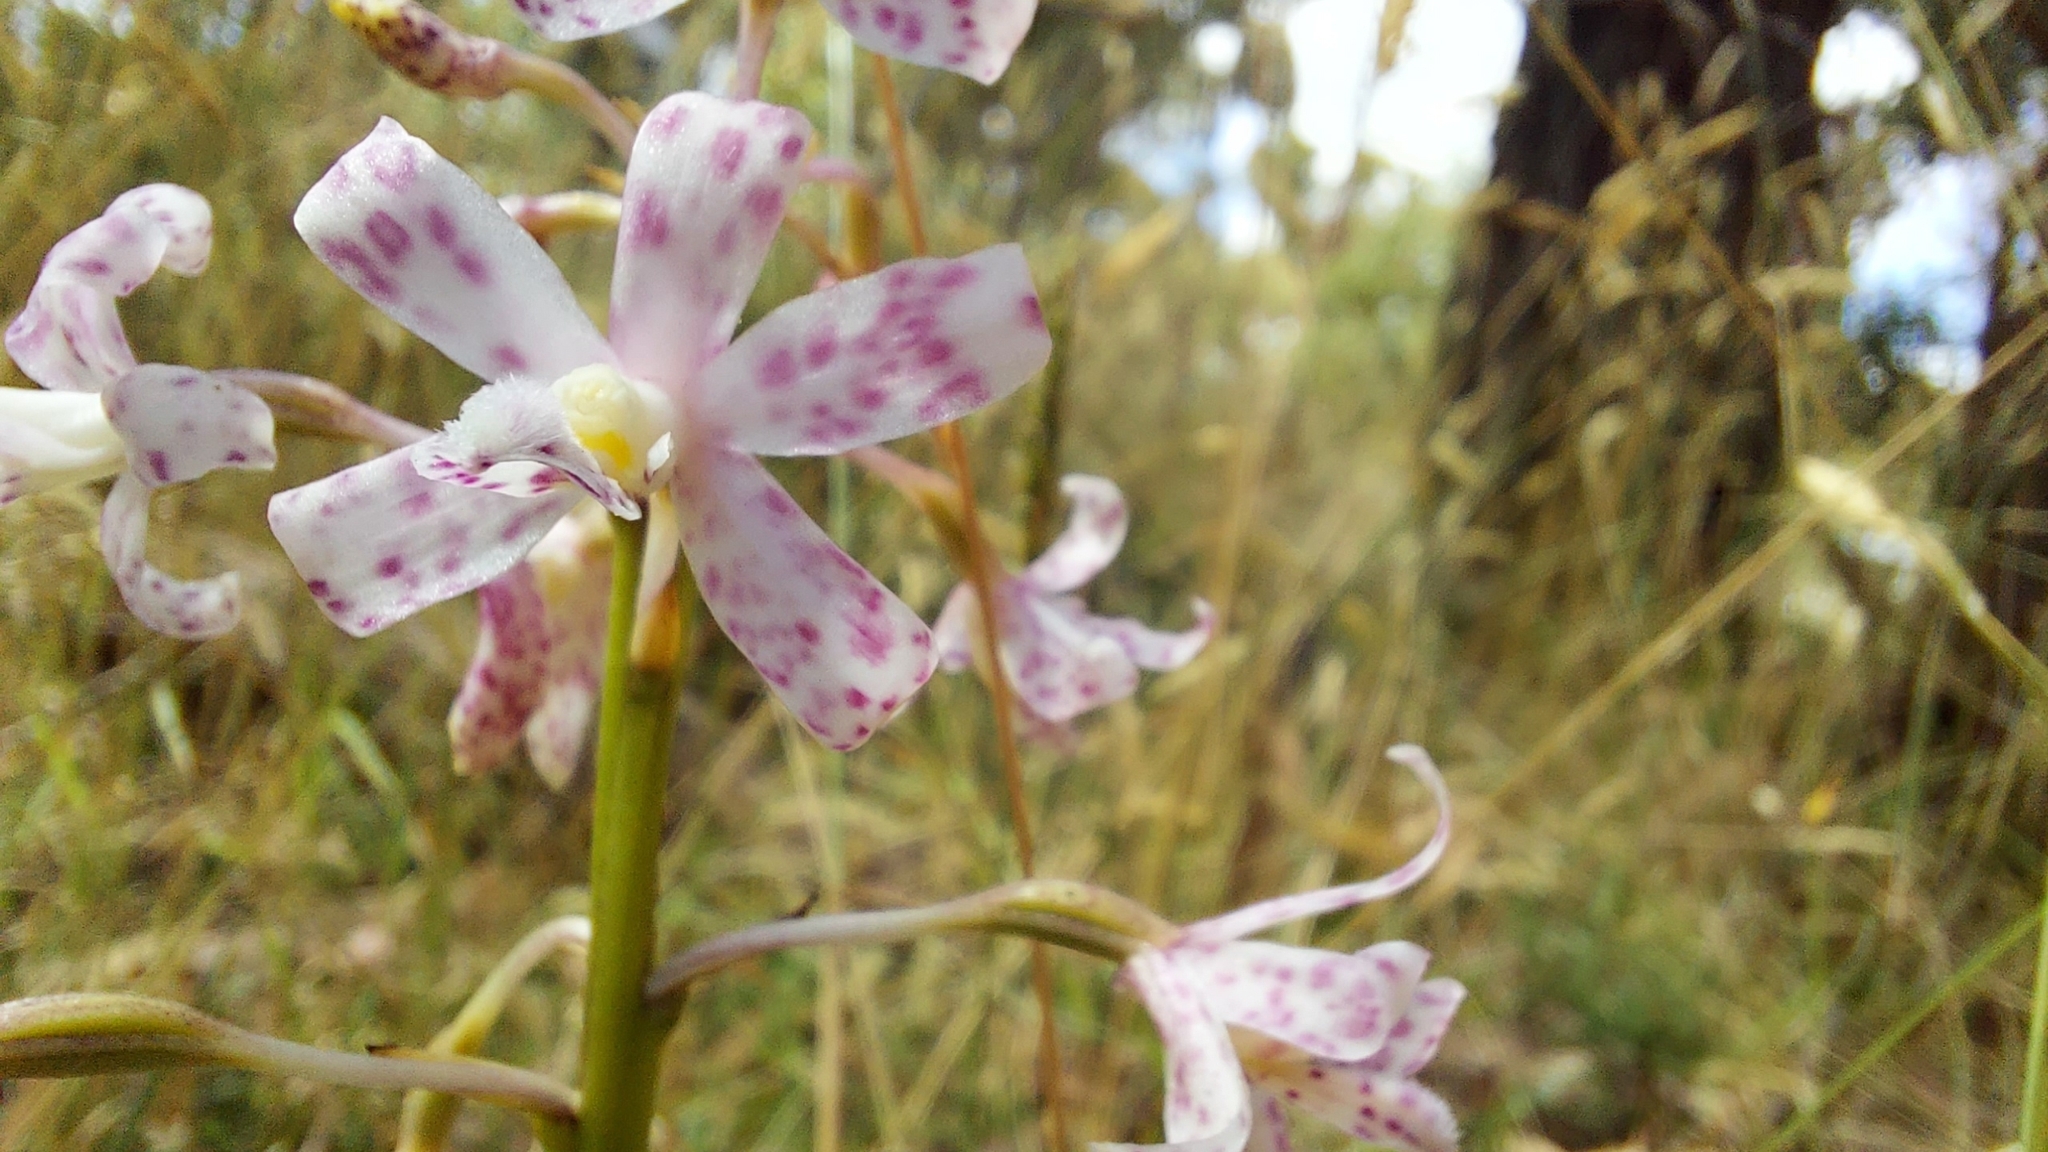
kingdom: Plantae
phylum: Tracheophyta
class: Liliopsida
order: Asparagales
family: Orchidaceae
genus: Dipodium
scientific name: Dipodium pardalinum
